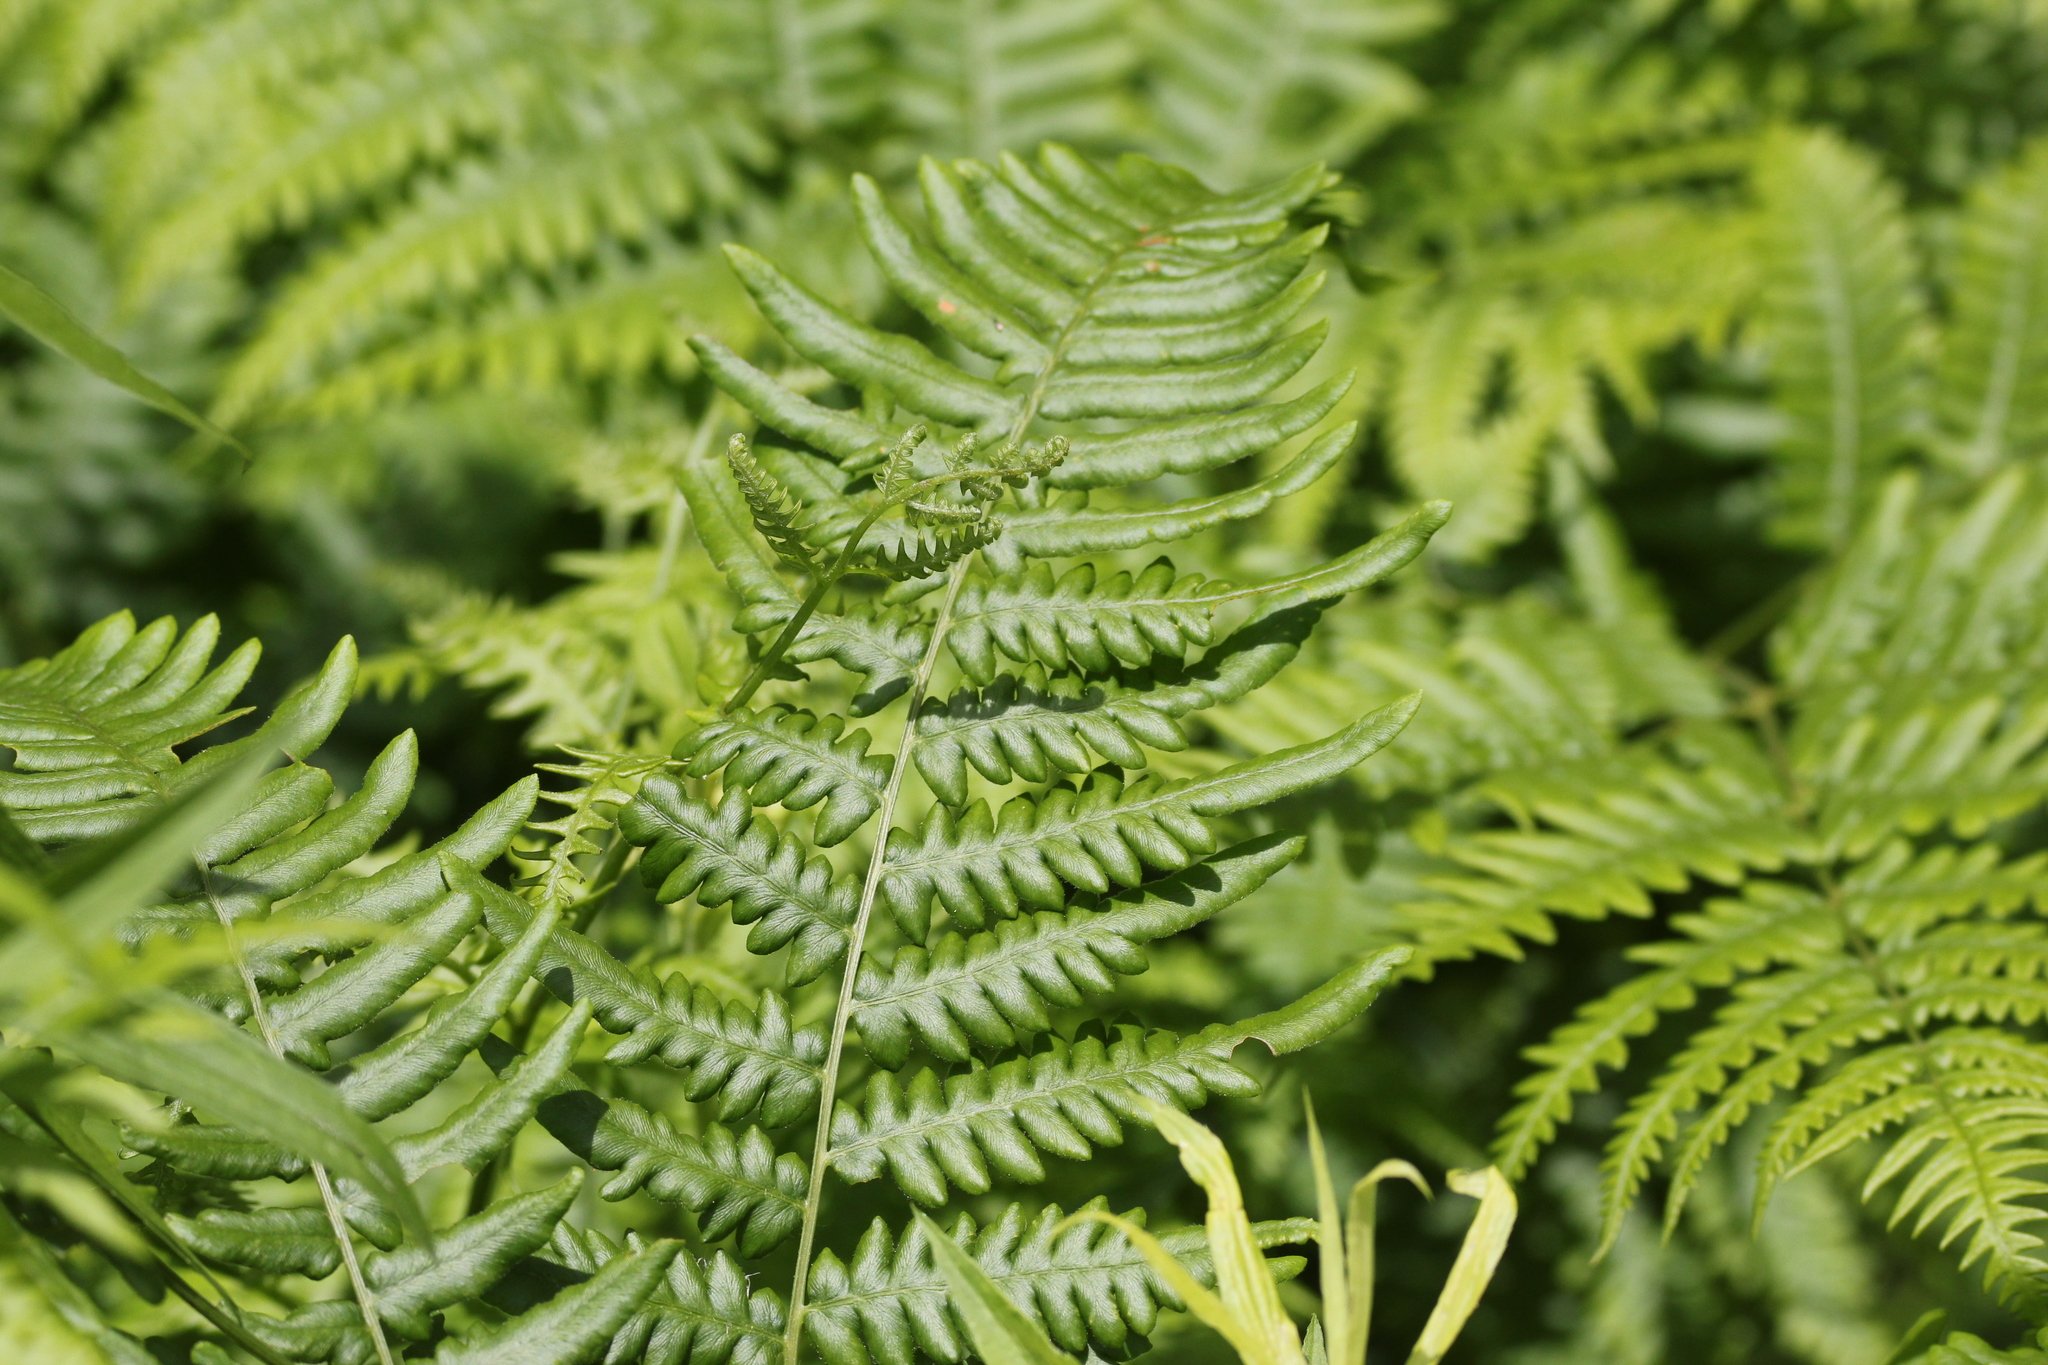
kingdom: Plantae
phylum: Tracheophyta
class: Polypodiopsida
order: Polypodiales
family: Dennstaedtiaceae
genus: Pteridium
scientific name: Pteridium aquilinum
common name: Bracken
